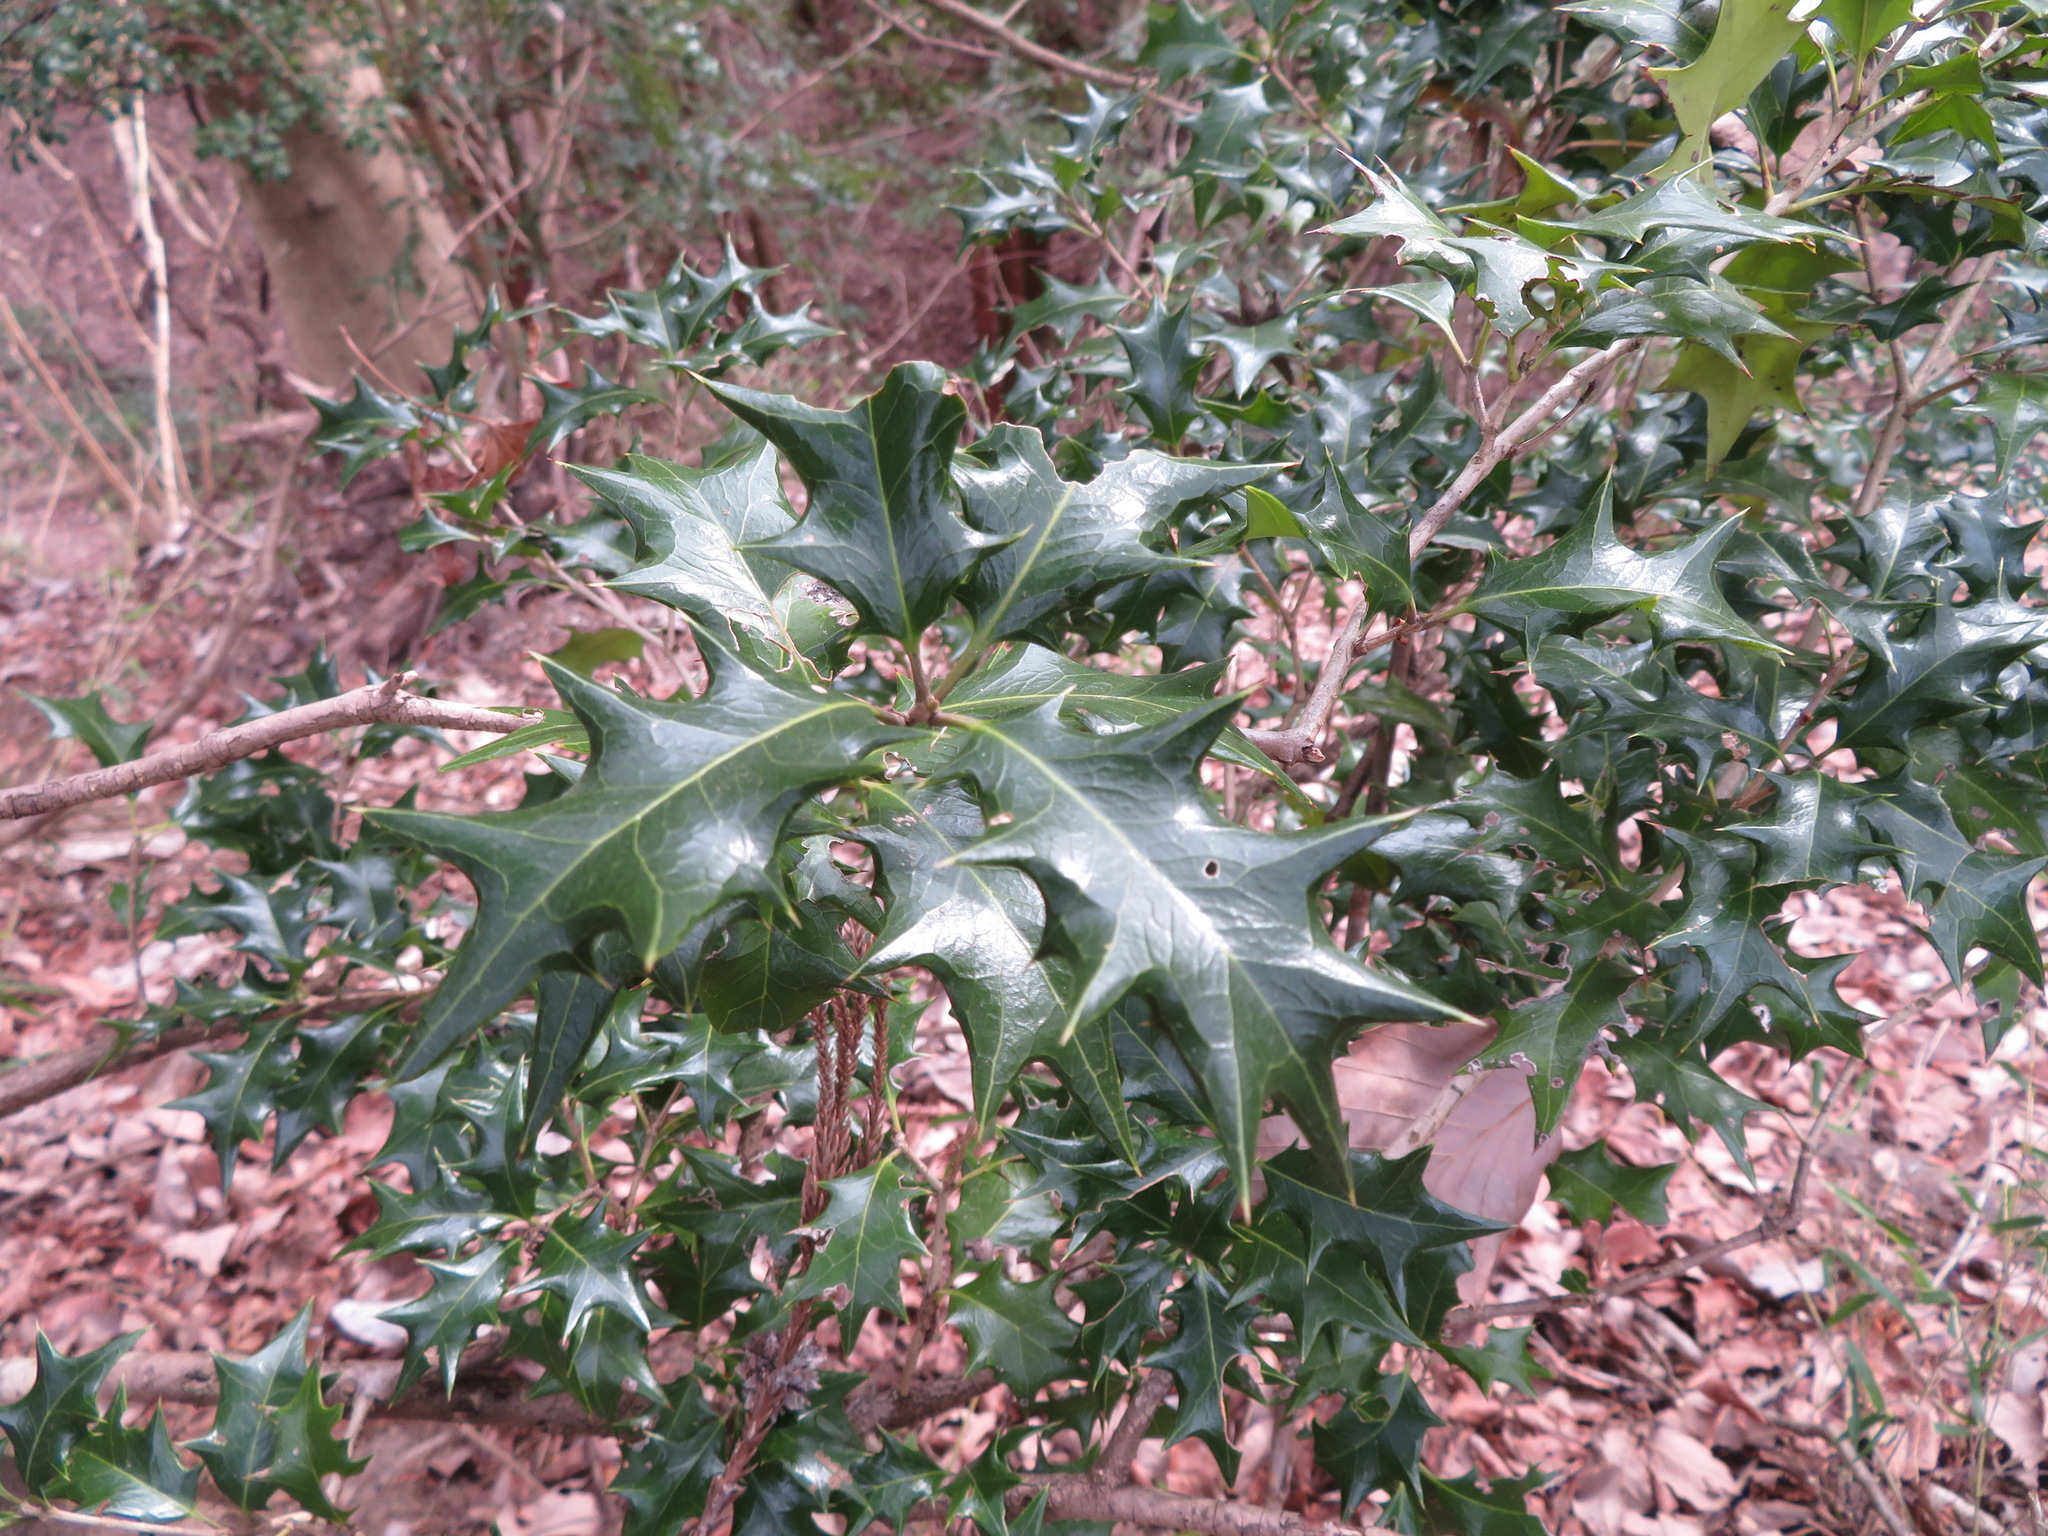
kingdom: Plantae
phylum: Tracheophyta
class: Magnoliopsida
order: Lamiales
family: Oleaceae
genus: Osmanthus
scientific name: Osmanthus heterophyllus
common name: Holly osmanthus
